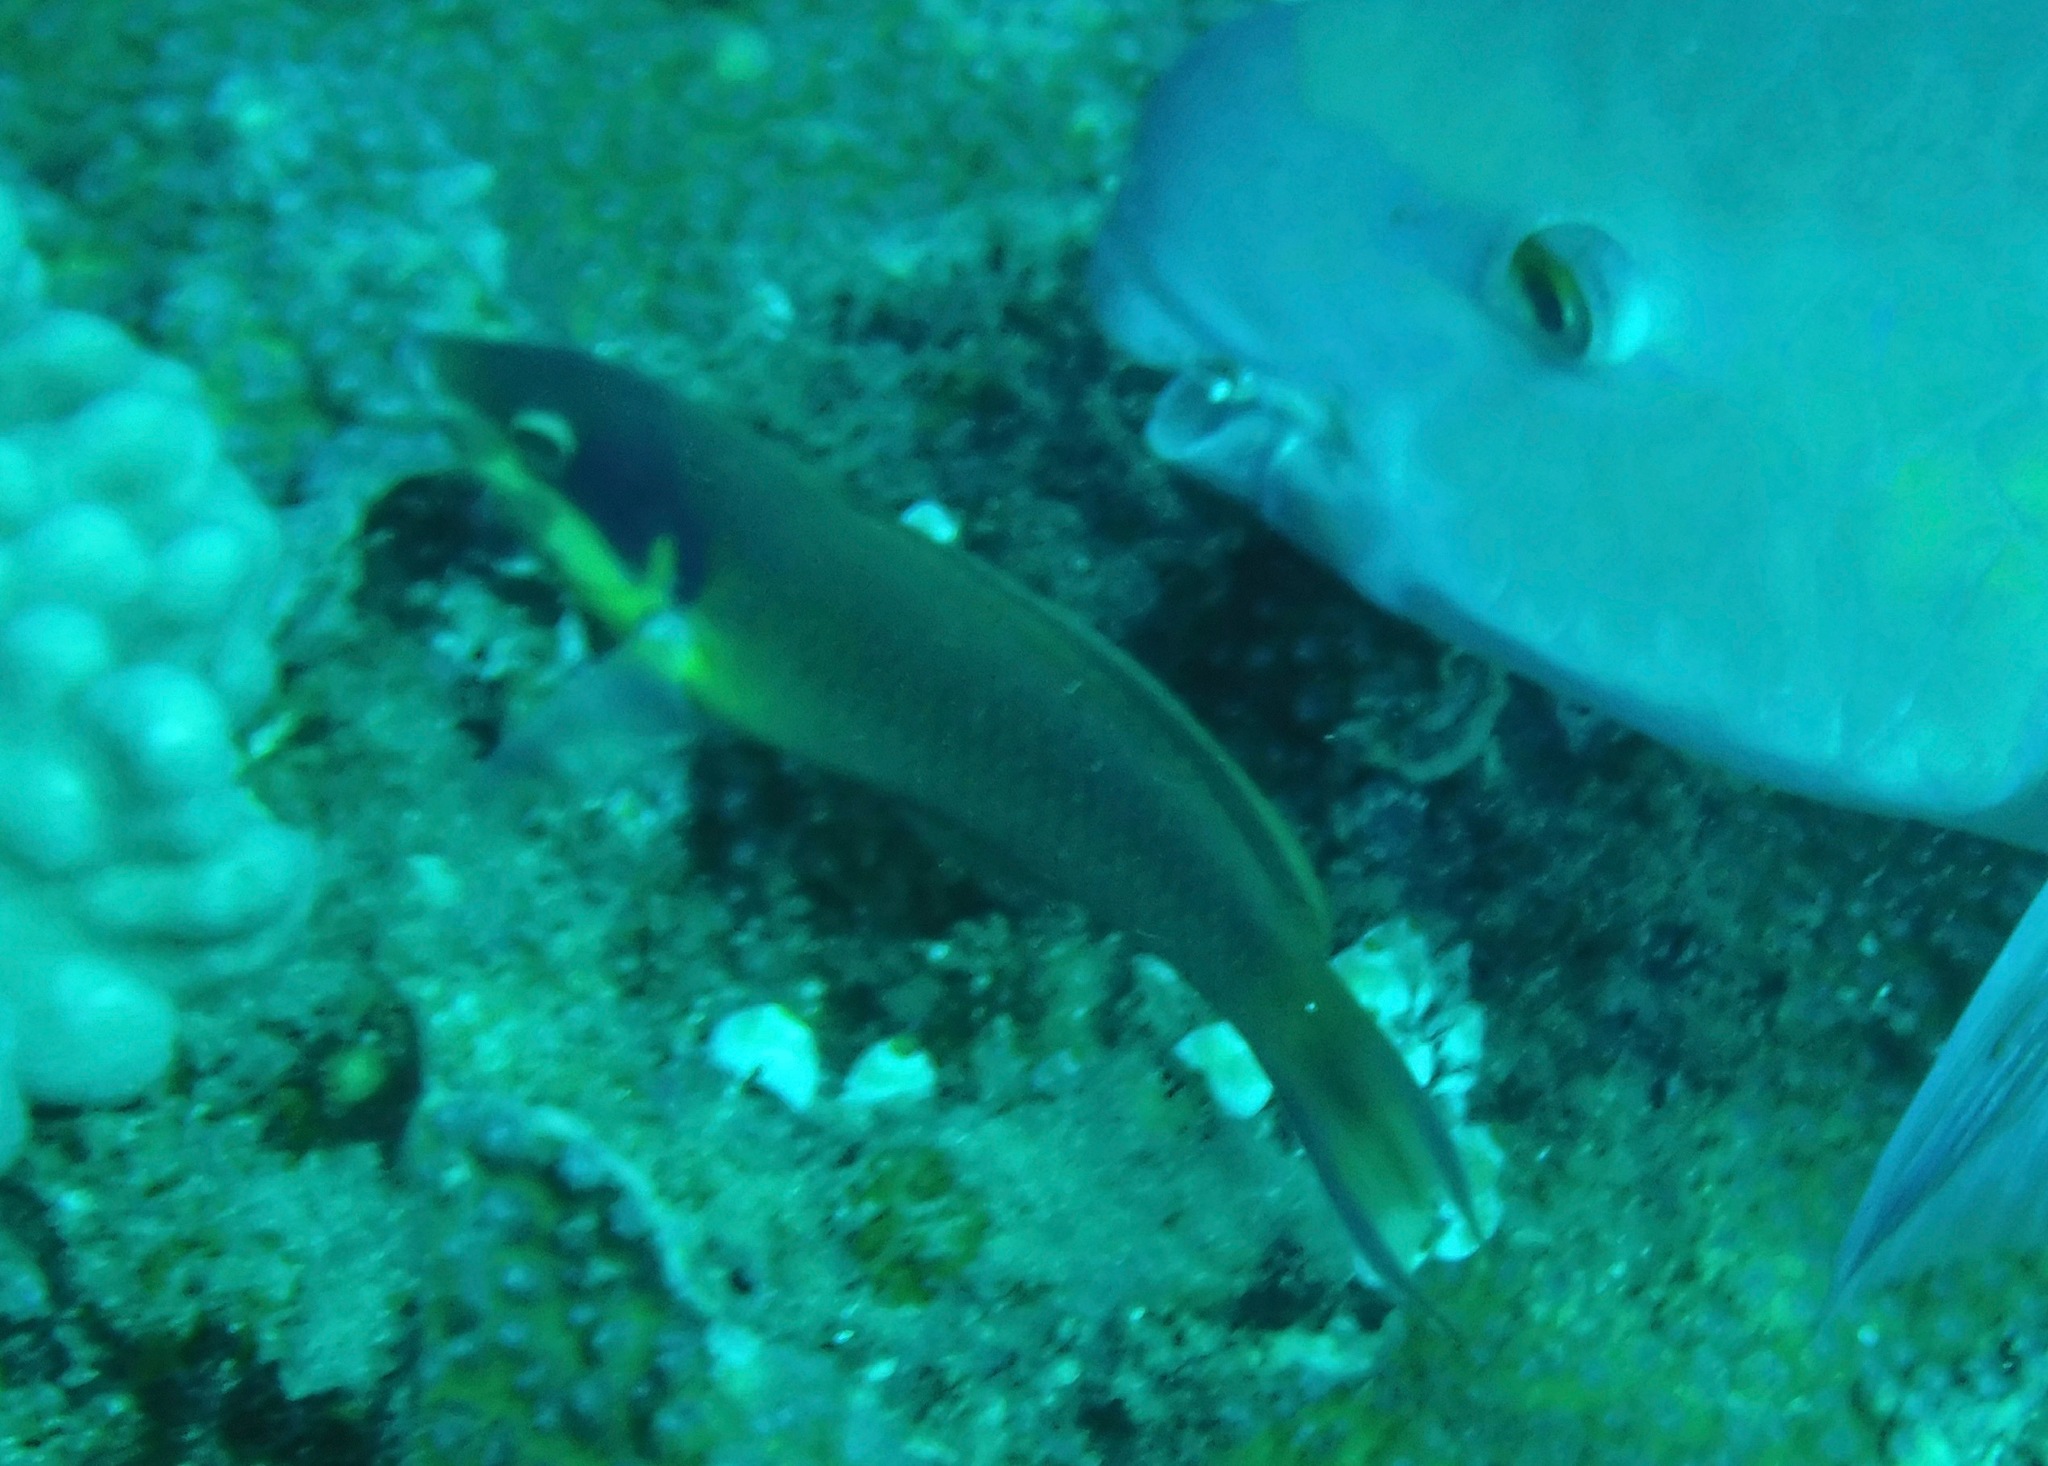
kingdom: Animalia
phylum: Chordata
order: Perciformes
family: Labridae
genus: Thalassoma
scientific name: Thalassoma genivittatum
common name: Red-cheek wrasse
